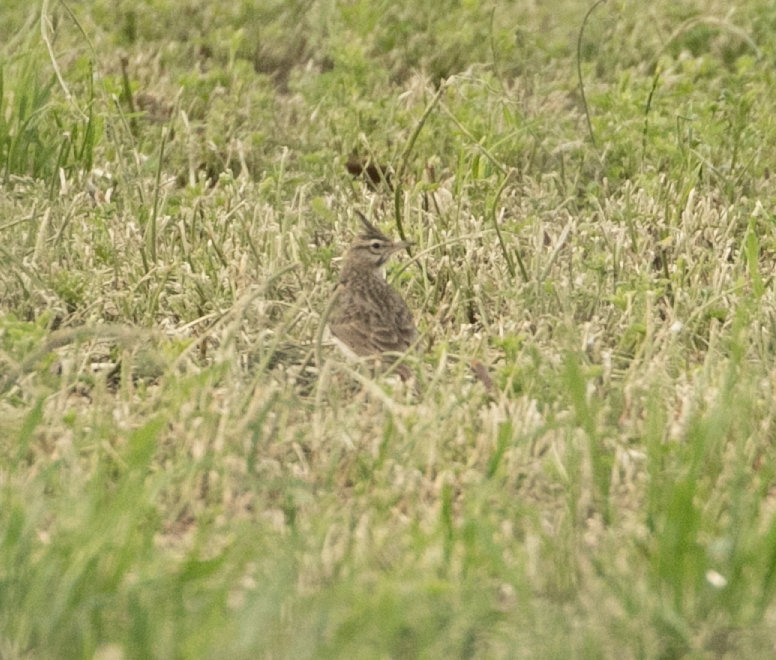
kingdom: Animalia
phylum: Chordata
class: Aves
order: Passeriformes
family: Alaudidae
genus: Galerida
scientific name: Galerida cristata
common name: Crested lark
